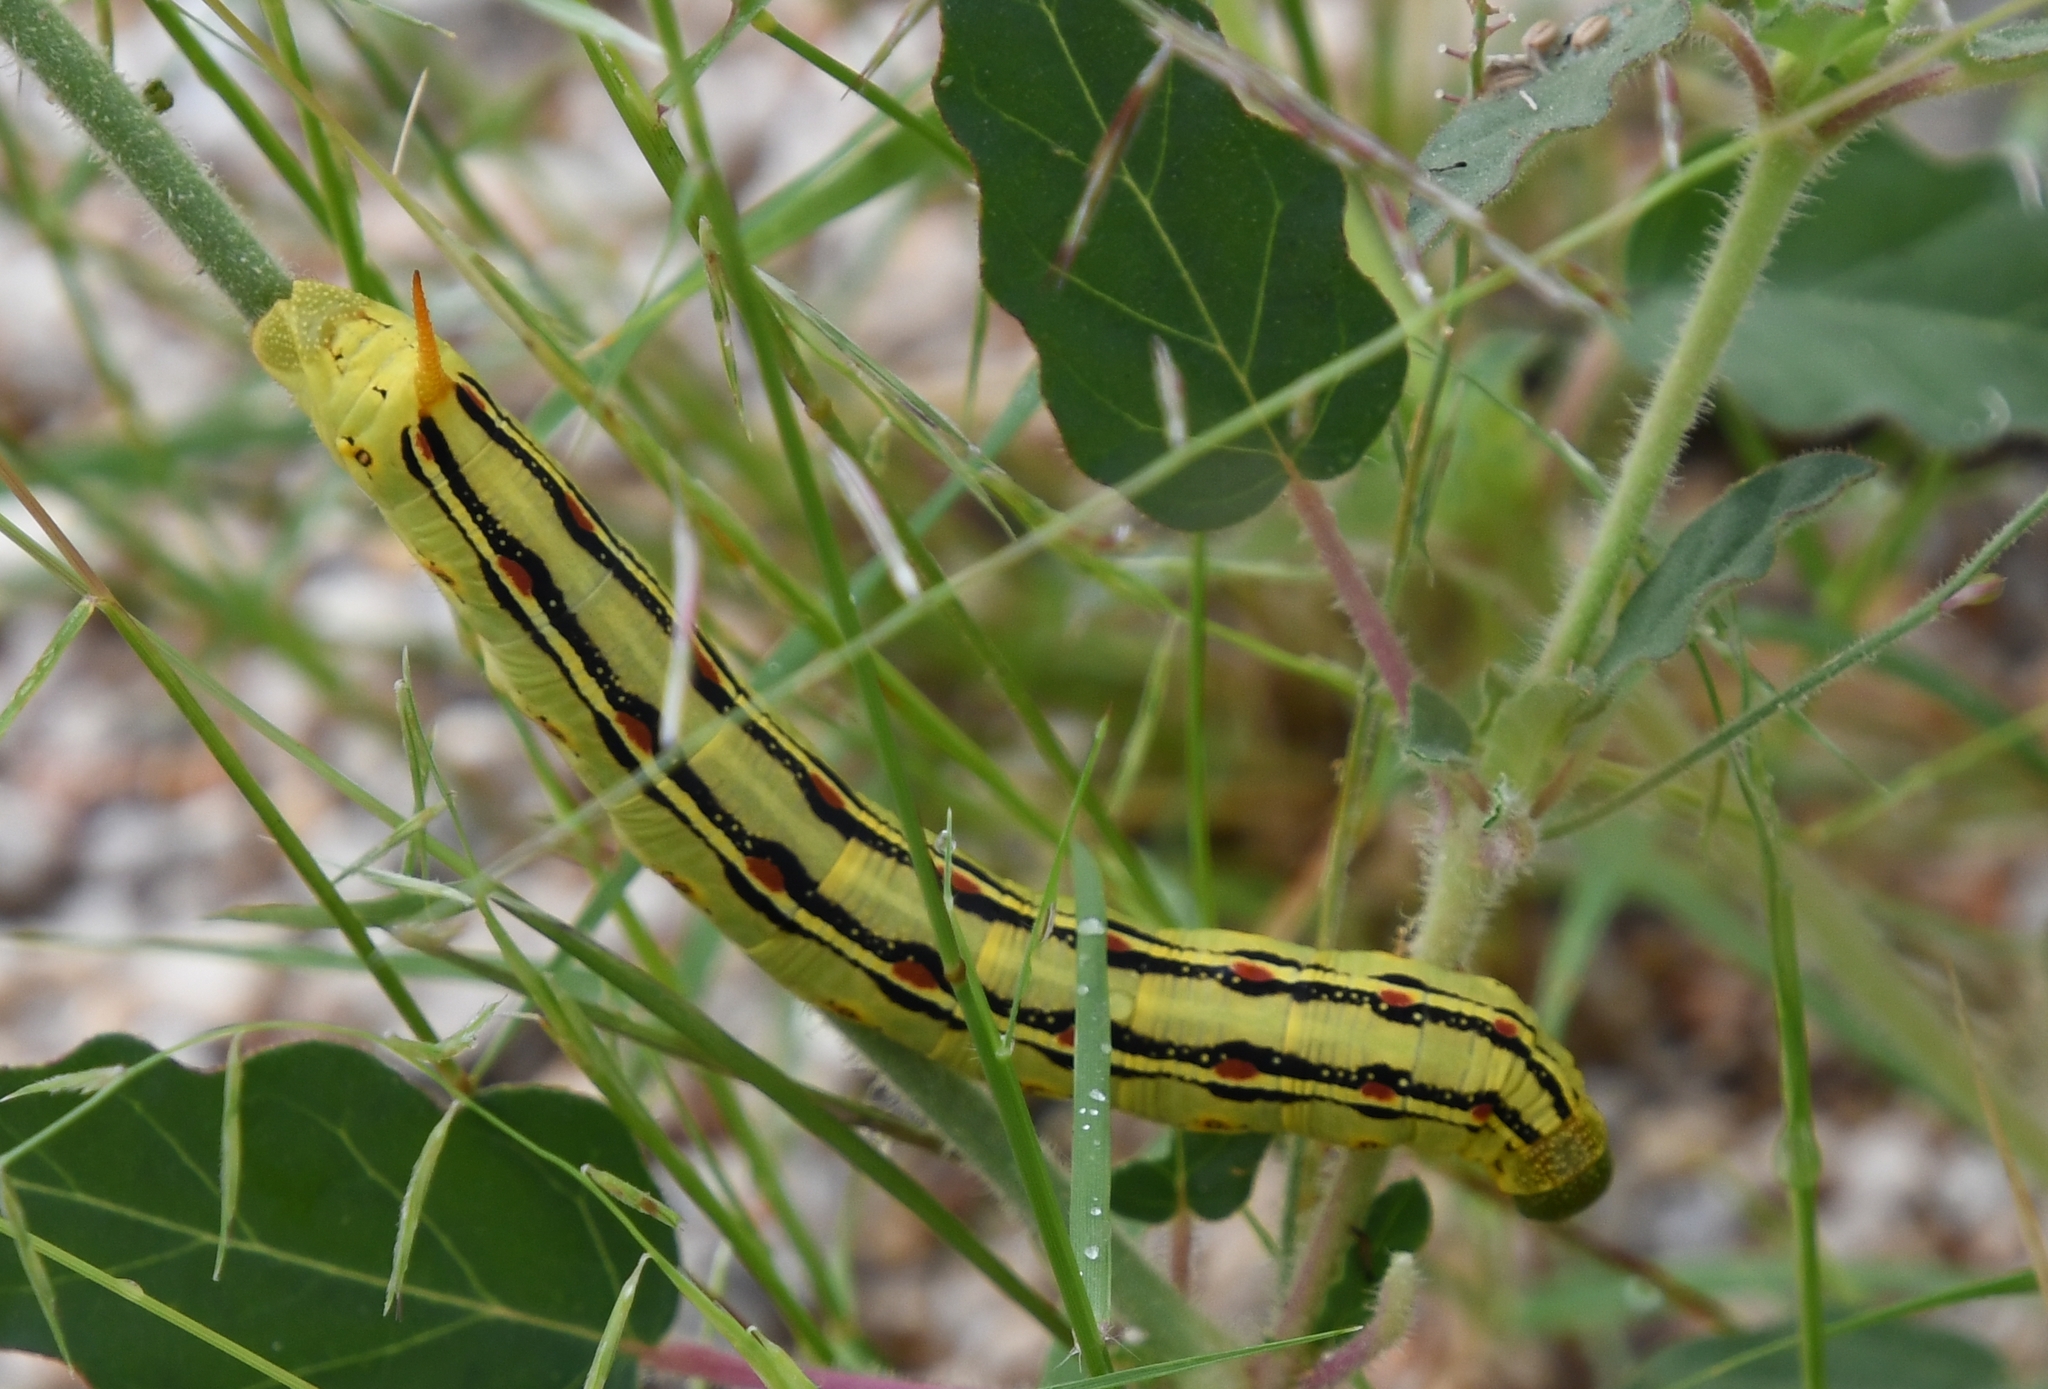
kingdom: Animalia
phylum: Arthropoda
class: Insecta
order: Lepidoptera
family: Sphingidae
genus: Hyles
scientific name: Hyles lineata
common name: White-lined sphinx
